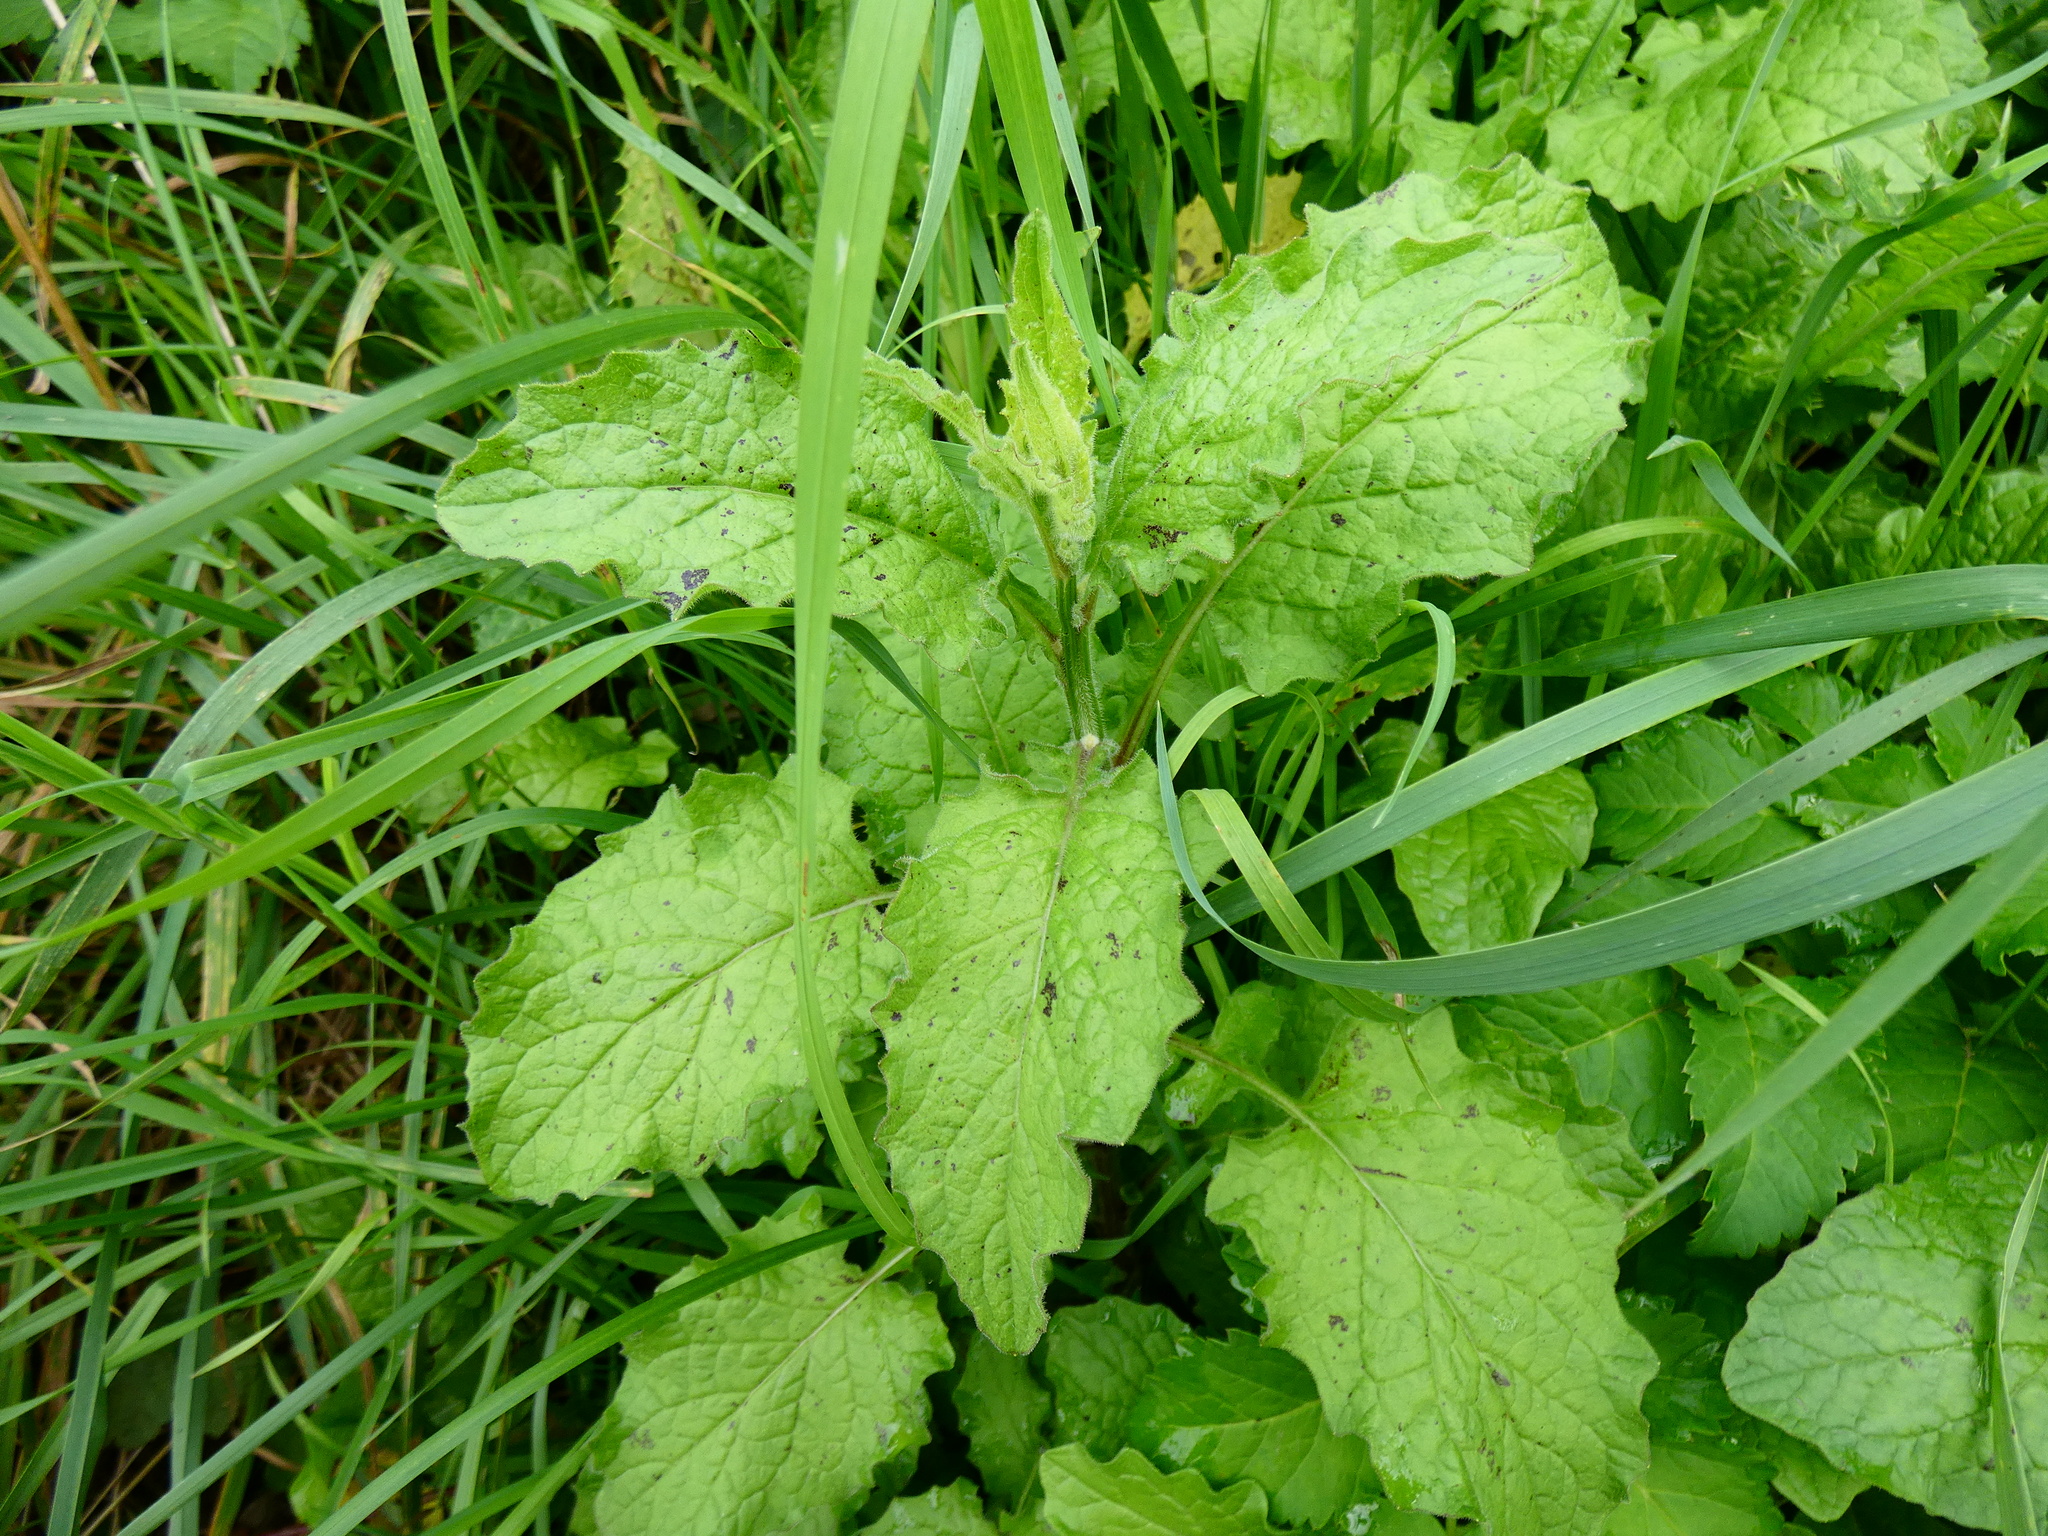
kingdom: Plantae
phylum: Tracheophyta
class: Magnoliopsida
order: Asterales
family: Asteraceae
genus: Lapsana
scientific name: Lapsana communis
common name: Nipplewort
